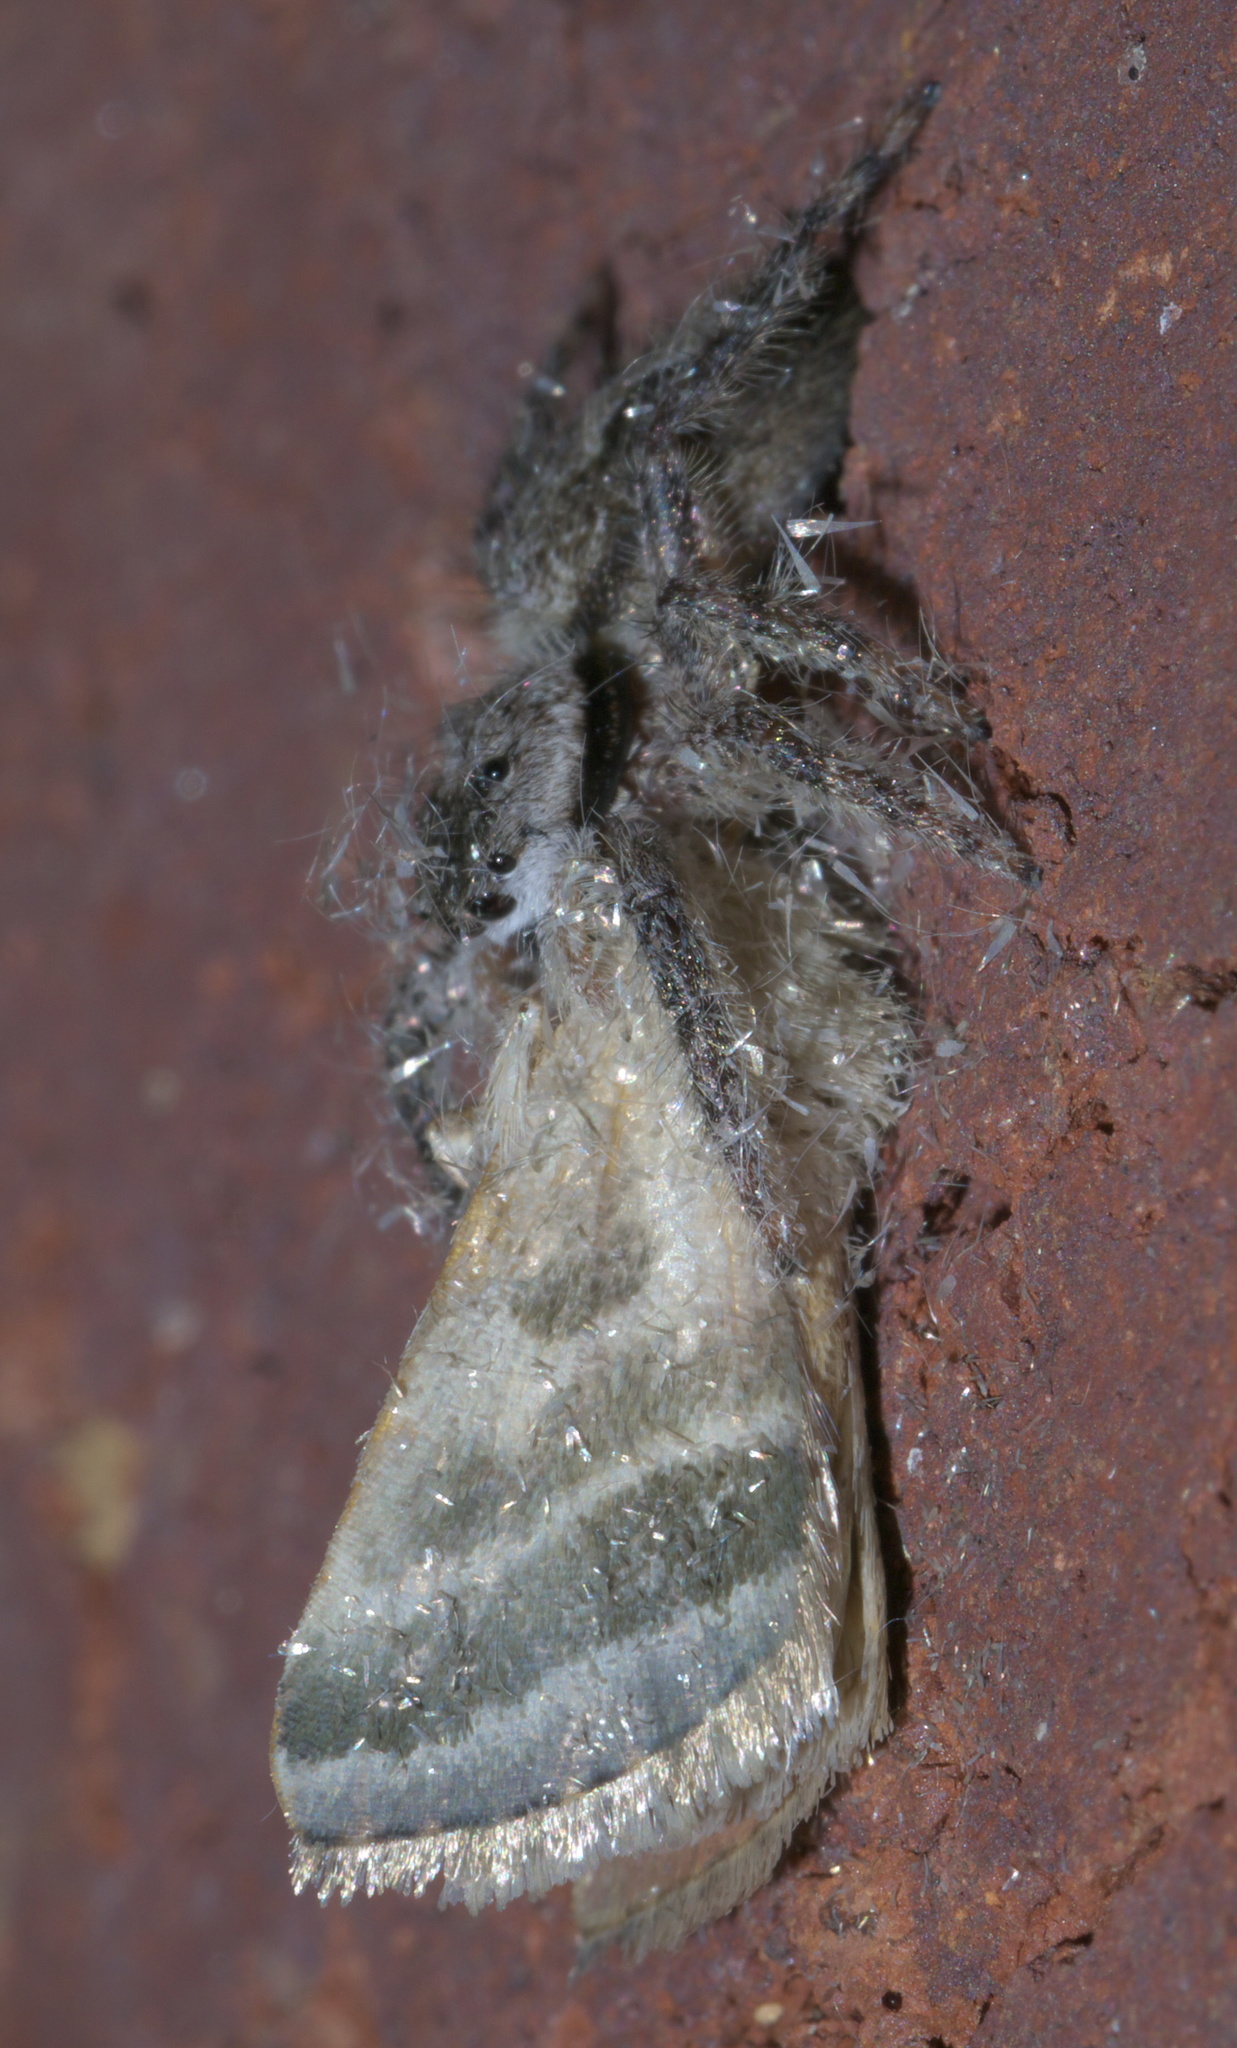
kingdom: Animalia
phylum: Arthropoda
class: Arachnida
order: Araneae
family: Salticidae
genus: Platycryptus
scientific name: Platycryptus undatus
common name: Tan jumping spider
